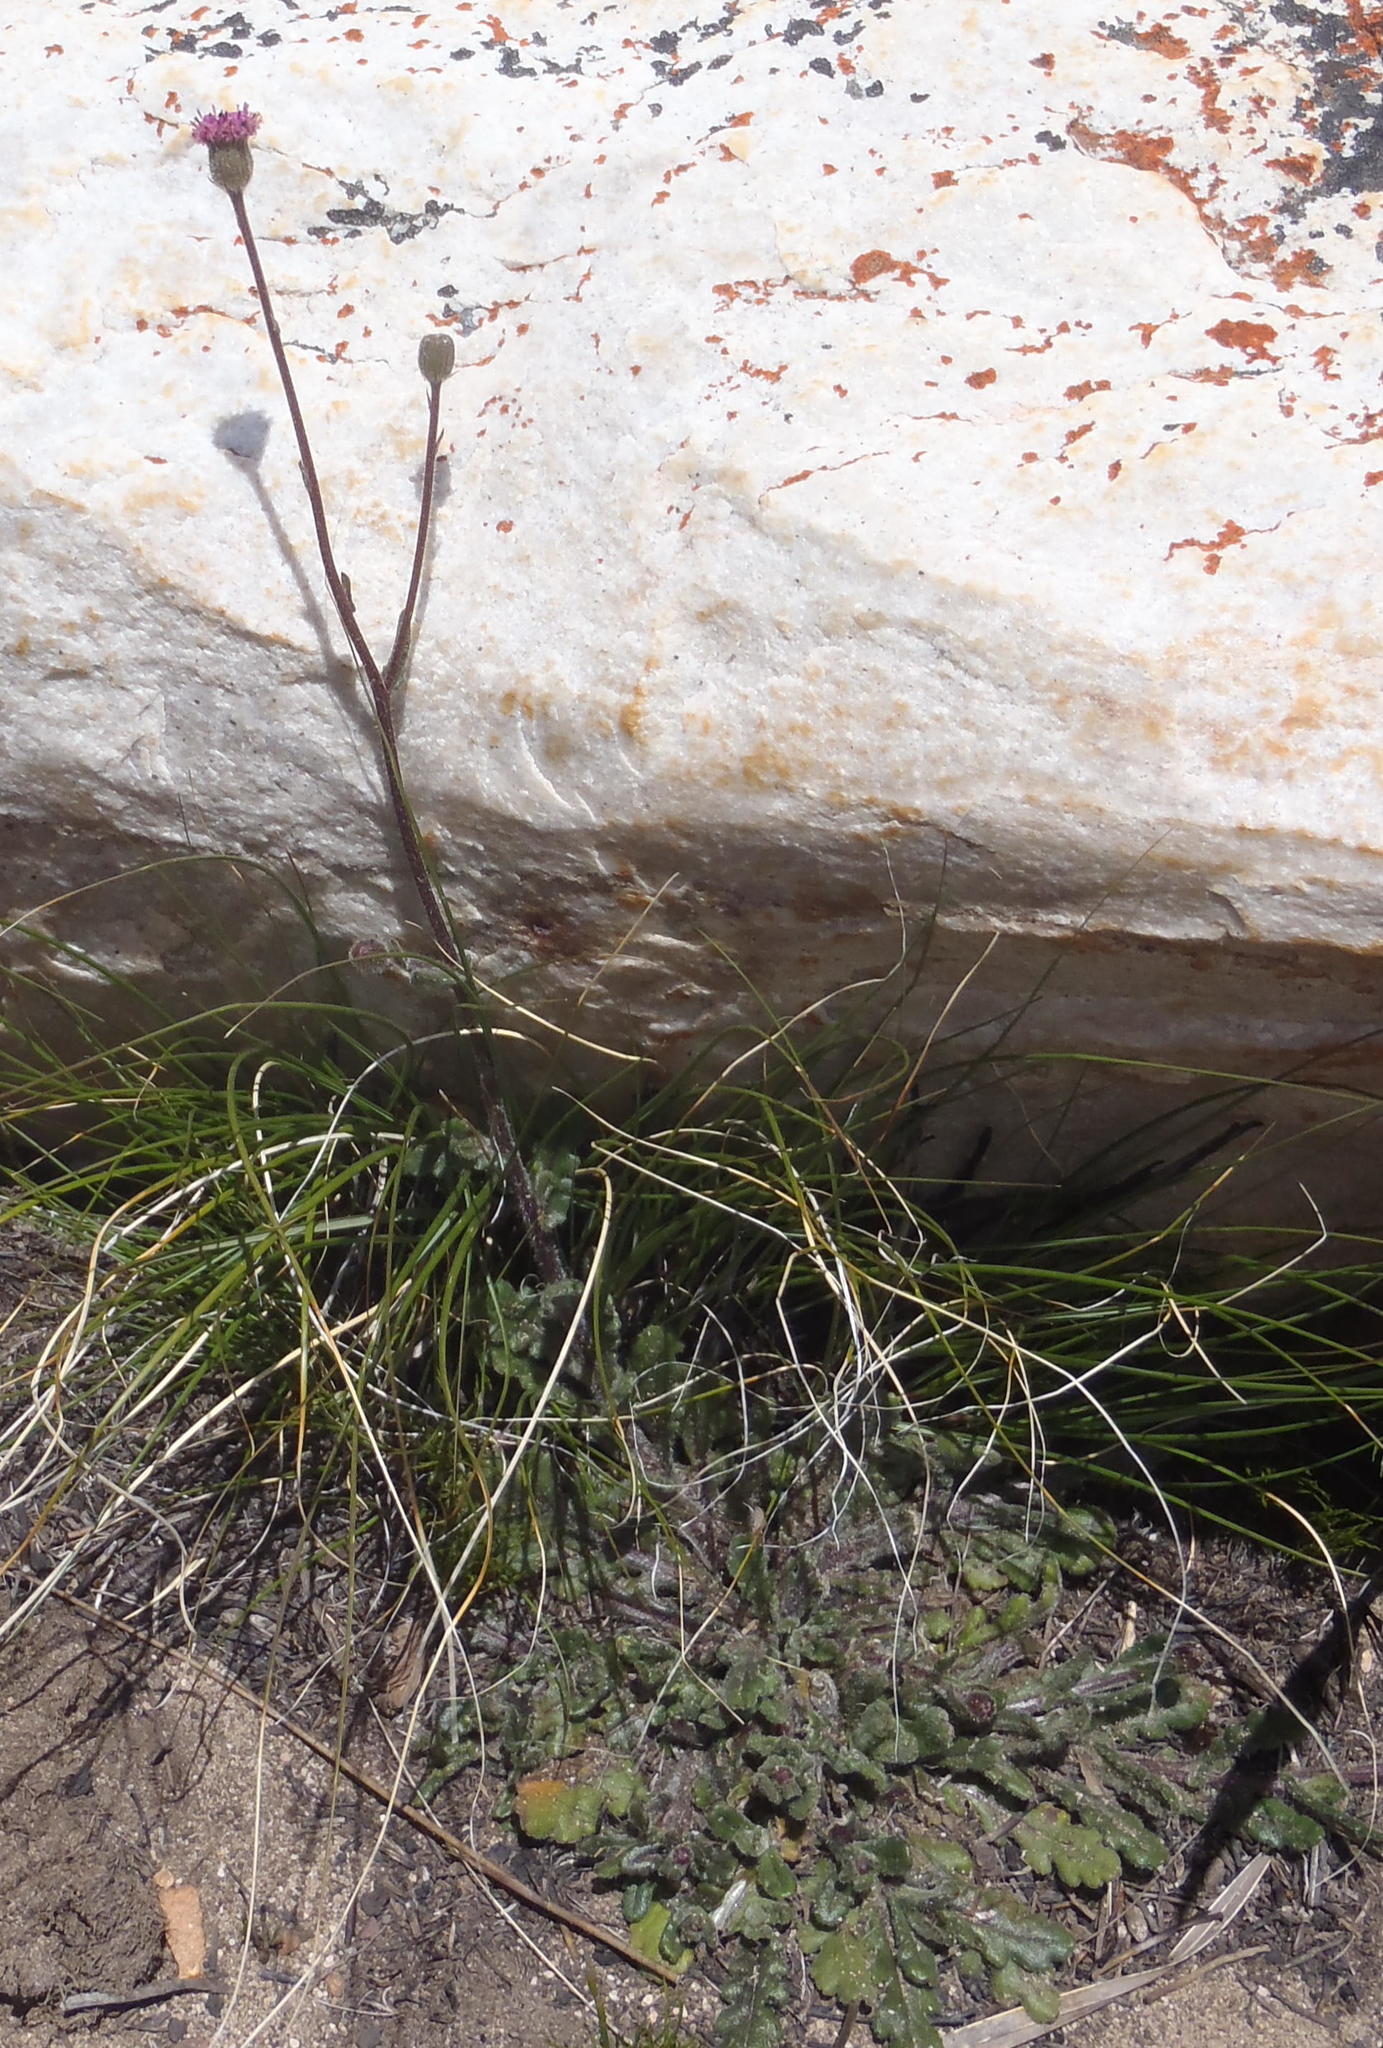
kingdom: Plantae
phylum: Tracheophyta
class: Magnoliopsida
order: Asterales
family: Asteraceae
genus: Senecio
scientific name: Senecio purpureus
